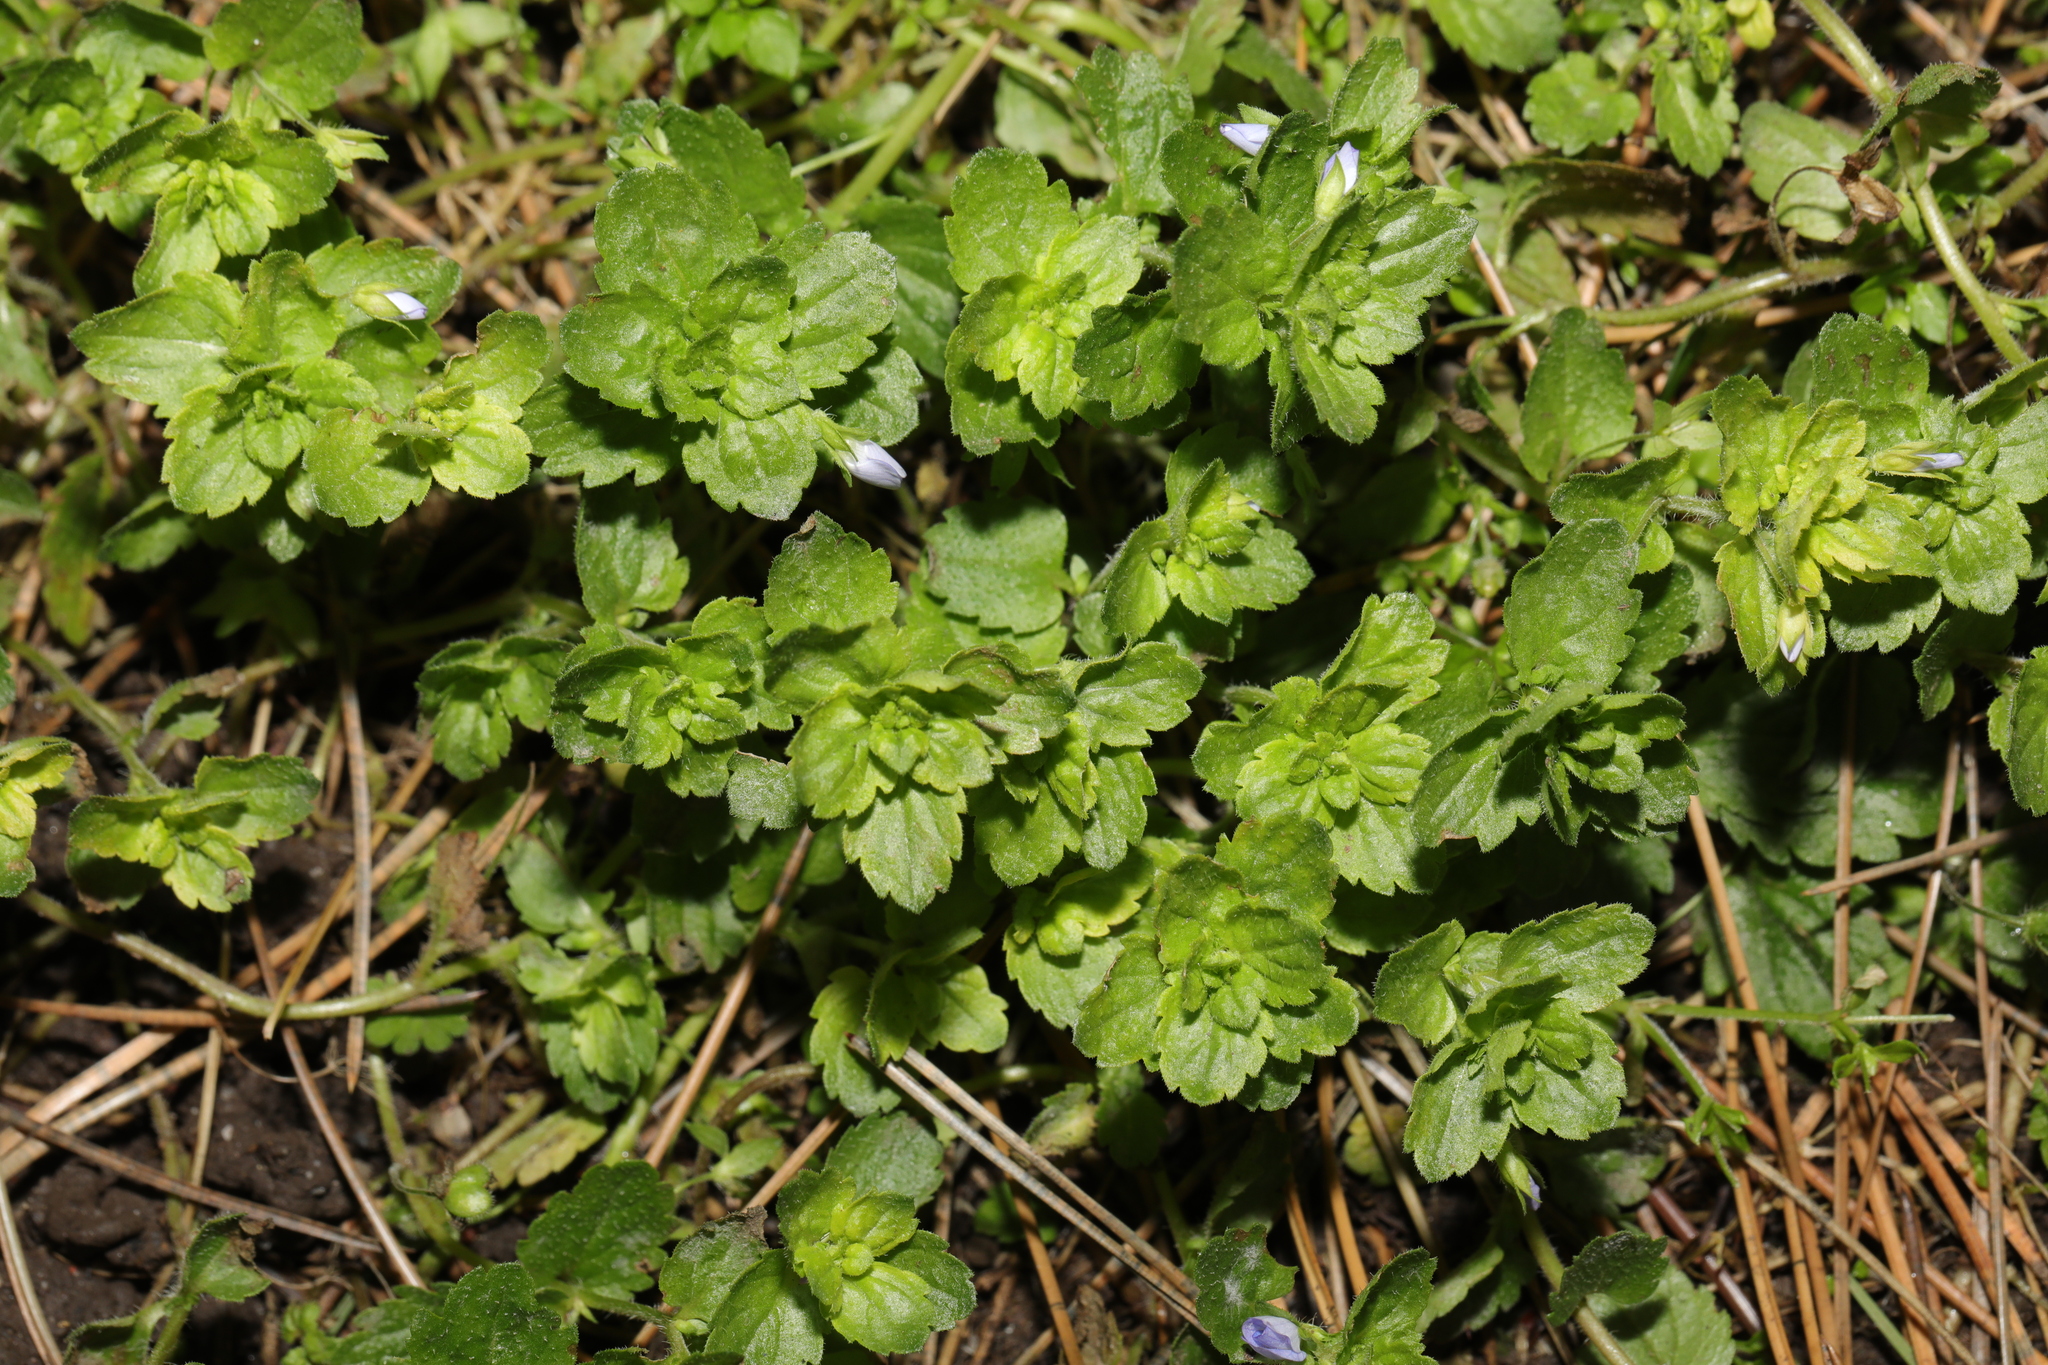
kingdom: Plantae
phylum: Tracheophyta
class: Magnoliopsida
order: Lamiales
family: Plantaginaceae
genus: Veronica
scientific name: Veronica persica
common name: Common field-speedwell
